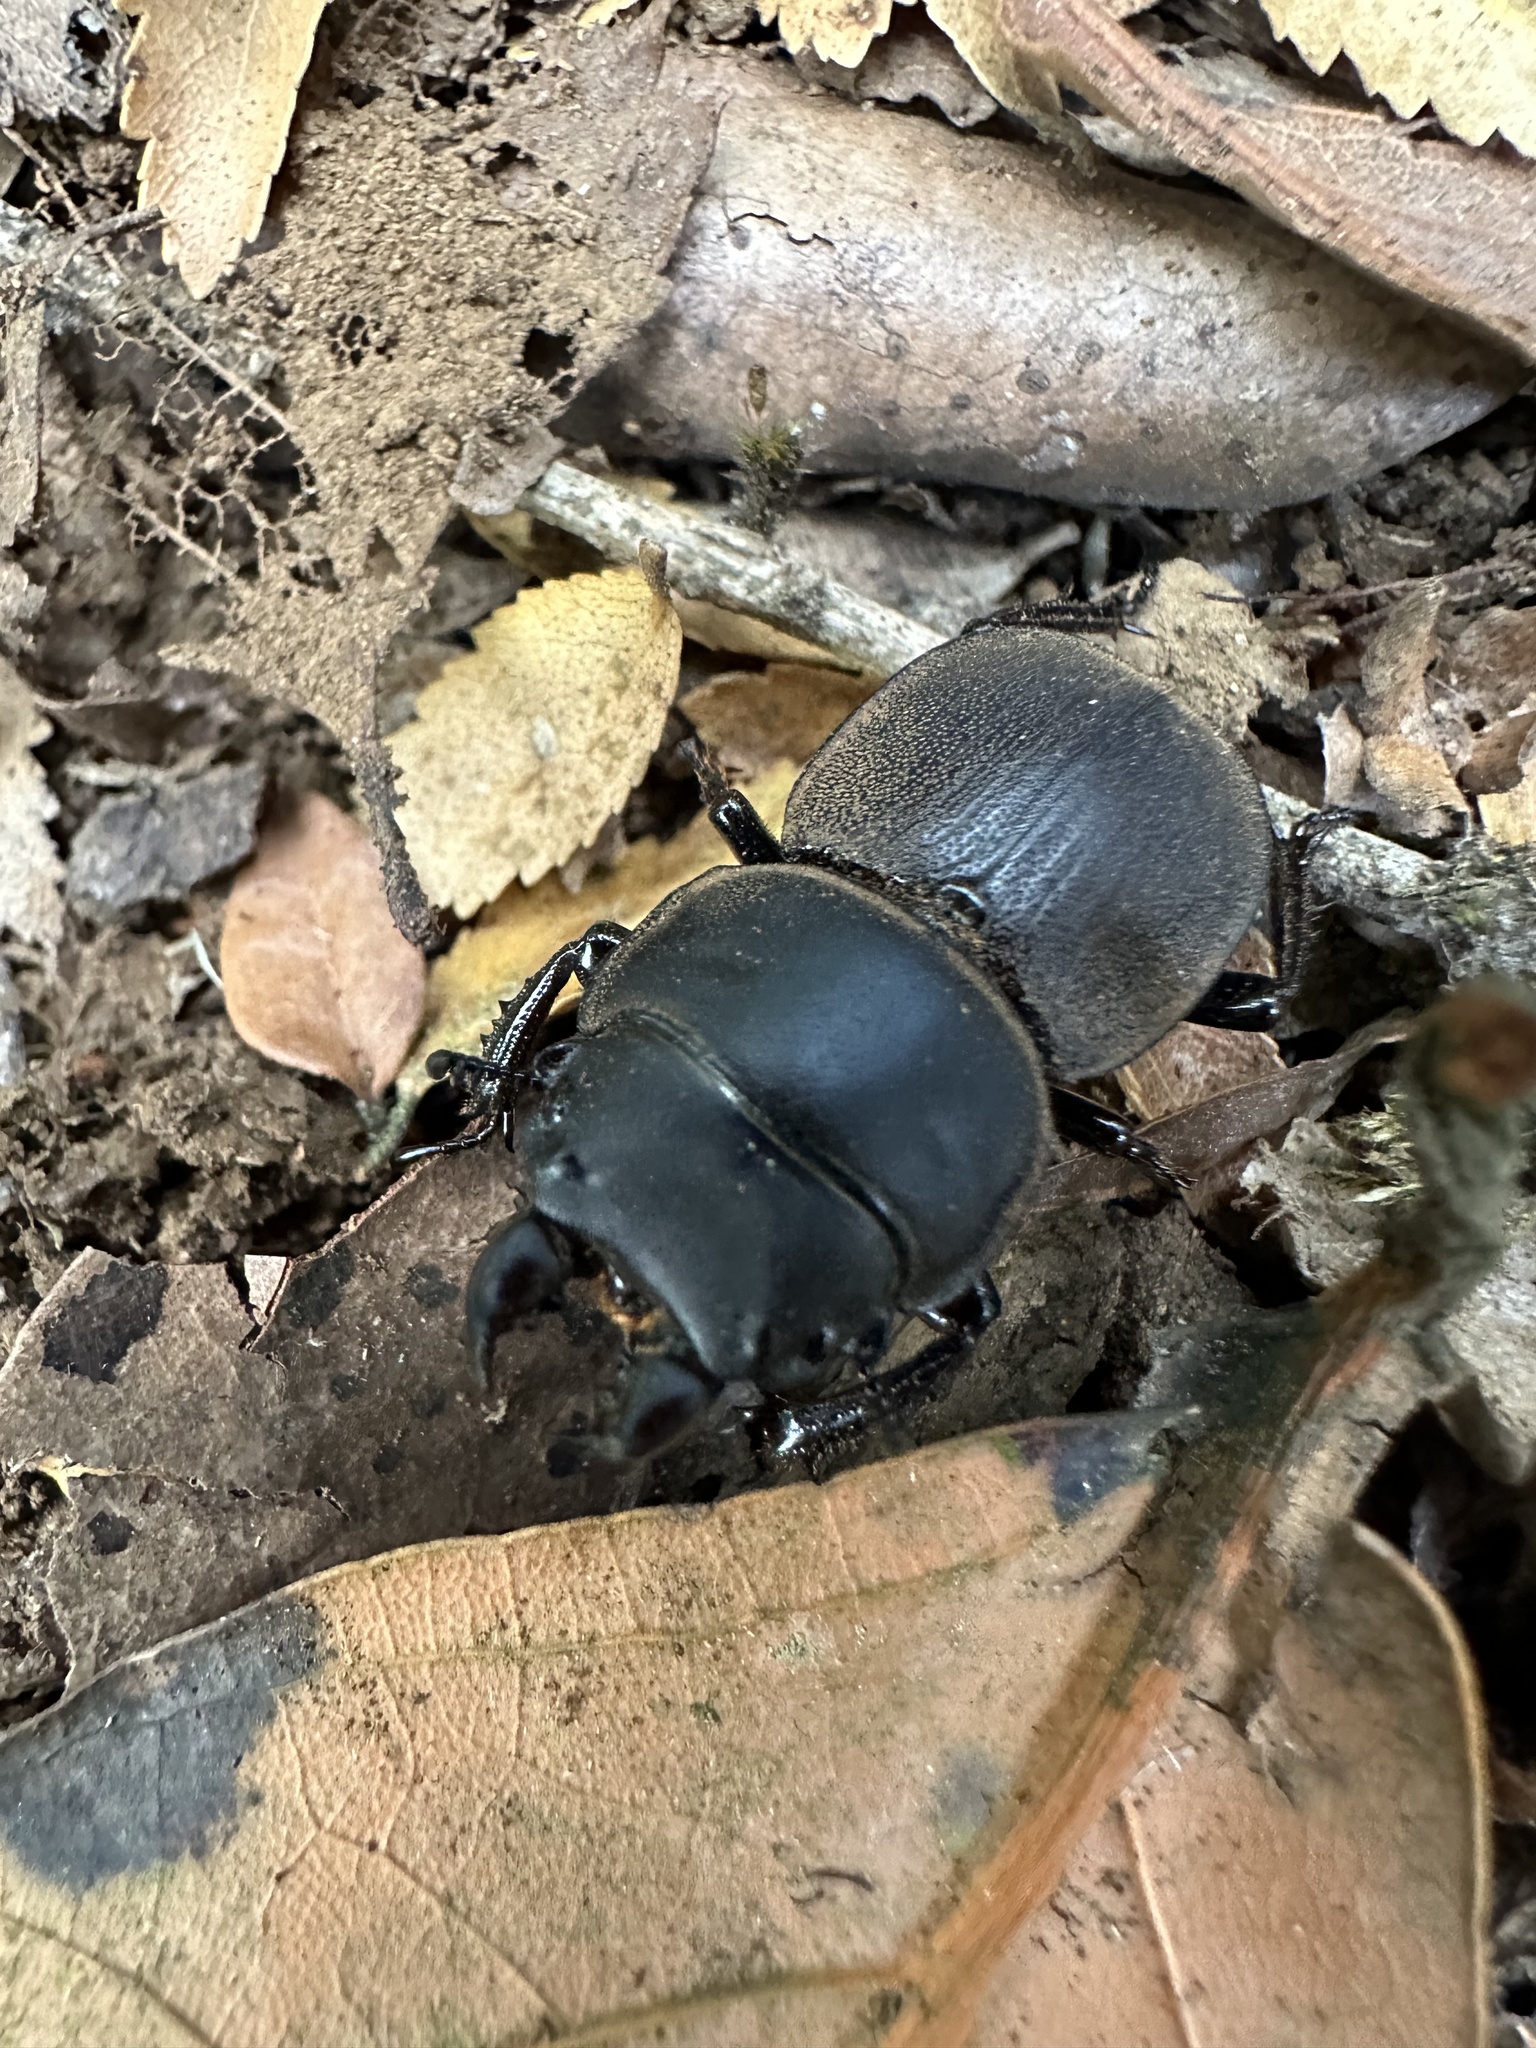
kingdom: Animalia
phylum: Arthropoda
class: Insecta
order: Coleoptera
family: Lucanidae
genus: Apterodorcus
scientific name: Apterodorcus bacchus
